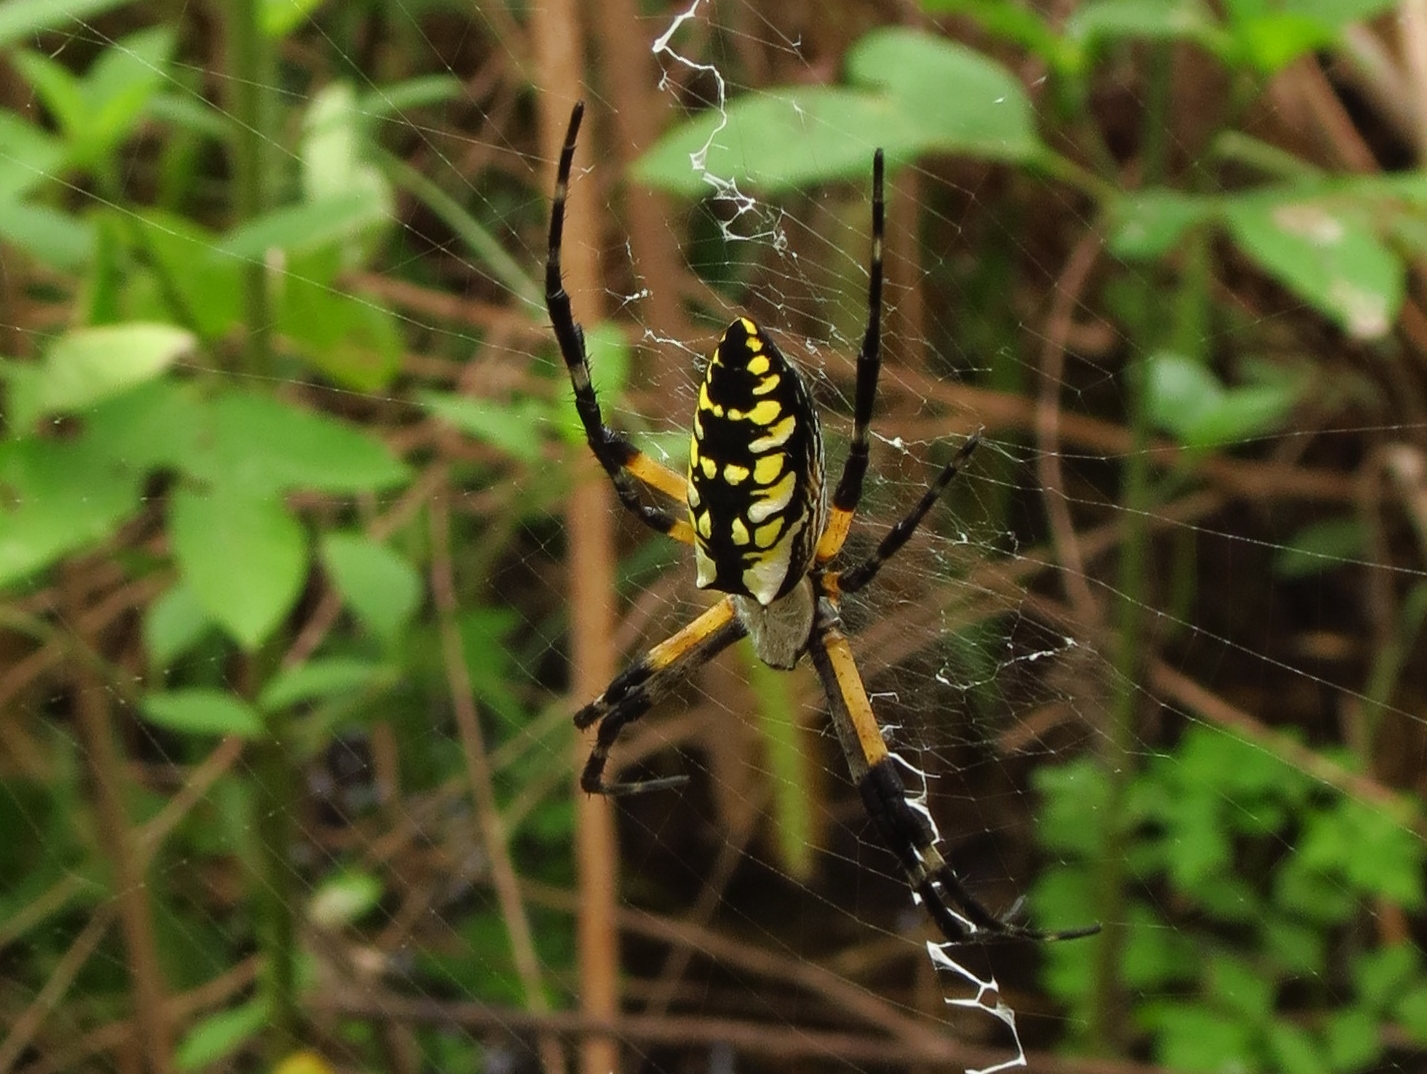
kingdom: Animalia
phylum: Arthropoda
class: Arachnida
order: Araneae
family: Araneidae
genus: Argiope
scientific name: Argiope aurantia
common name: Orb weavers
